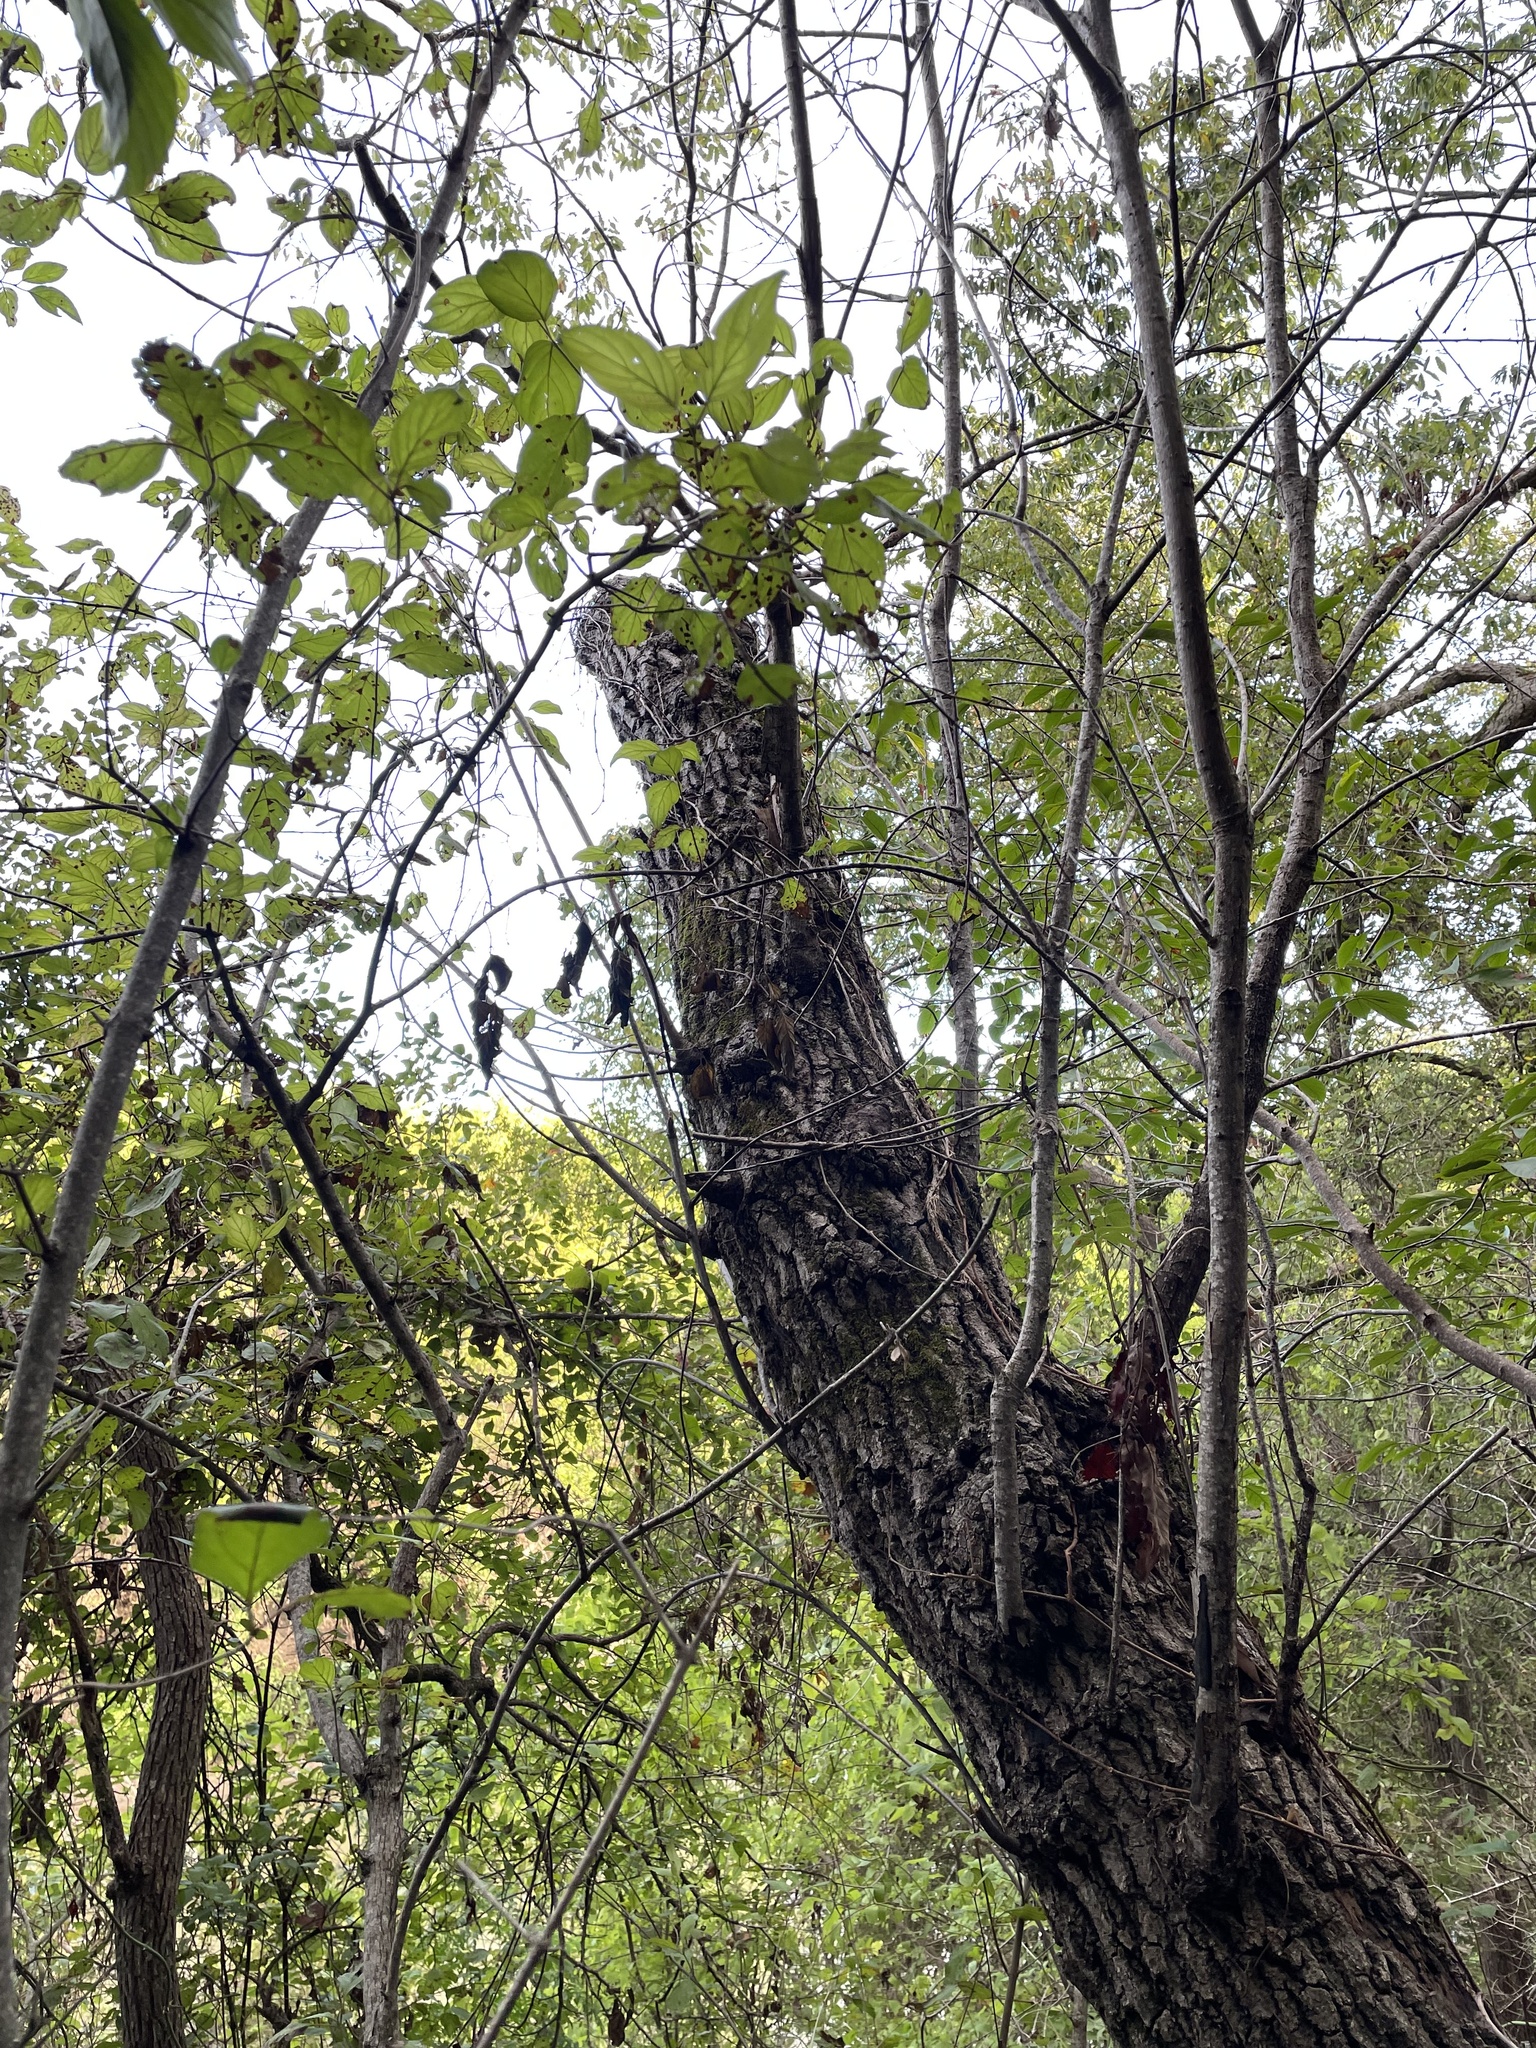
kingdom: Plantae
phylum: Tracheophyta
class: Magnoliopsida
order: Fagales
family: Fagaceae
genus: Quercus
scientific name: Quercus buckleyi
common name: Buckley oak
